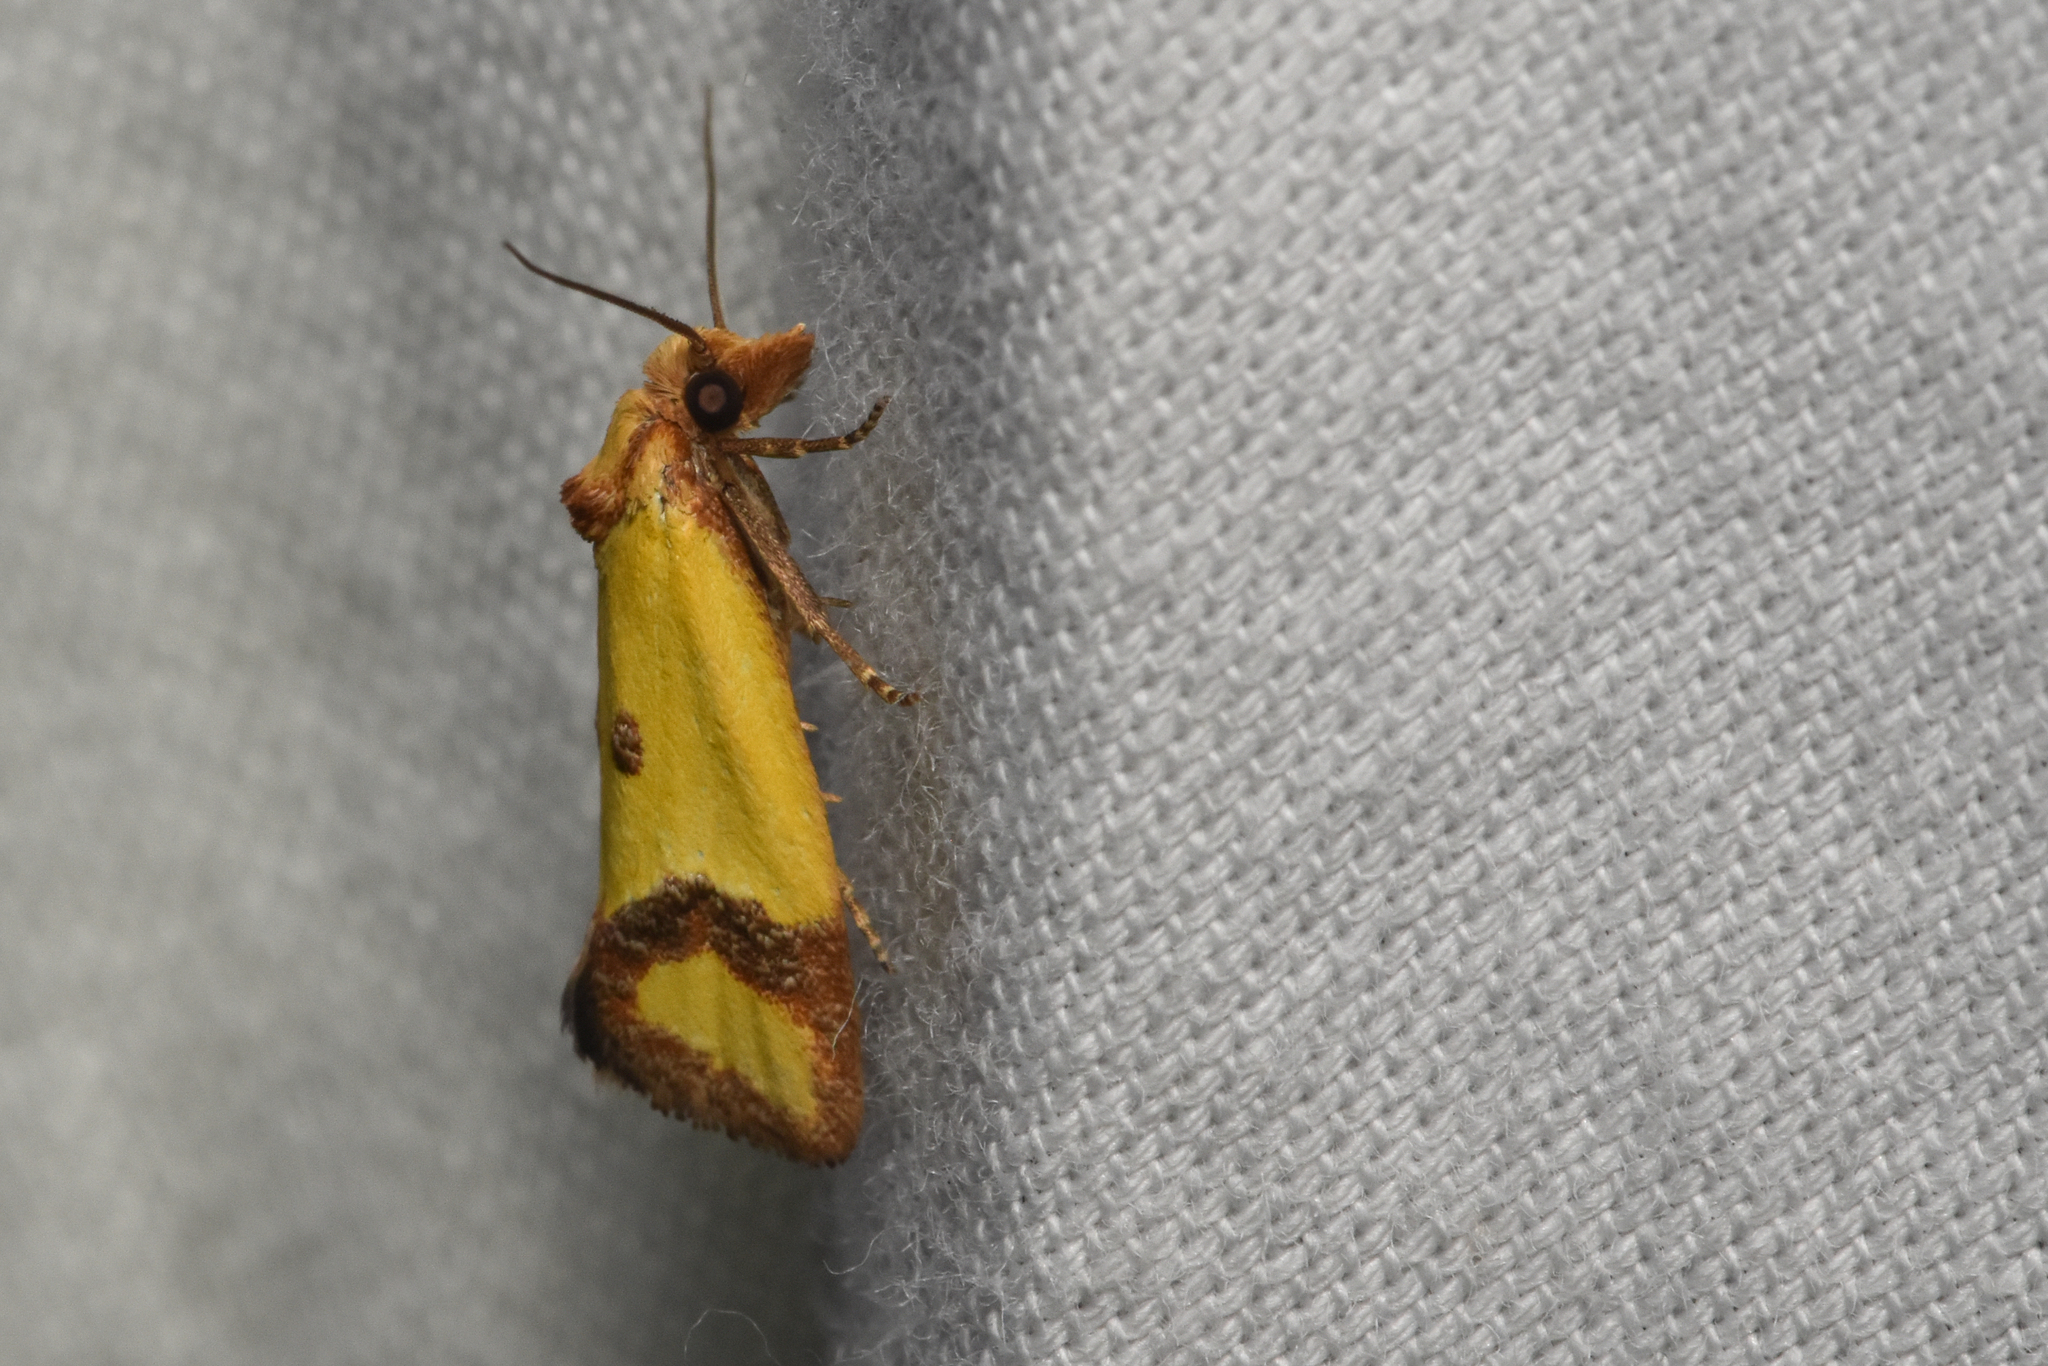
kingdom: Animalia
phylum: Arthropoda
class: Insecta
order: Lepidoptera
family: Tortricidae
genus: Agapeta
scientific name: Agapeta zoegana
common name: Sulfur knapweed root moth
